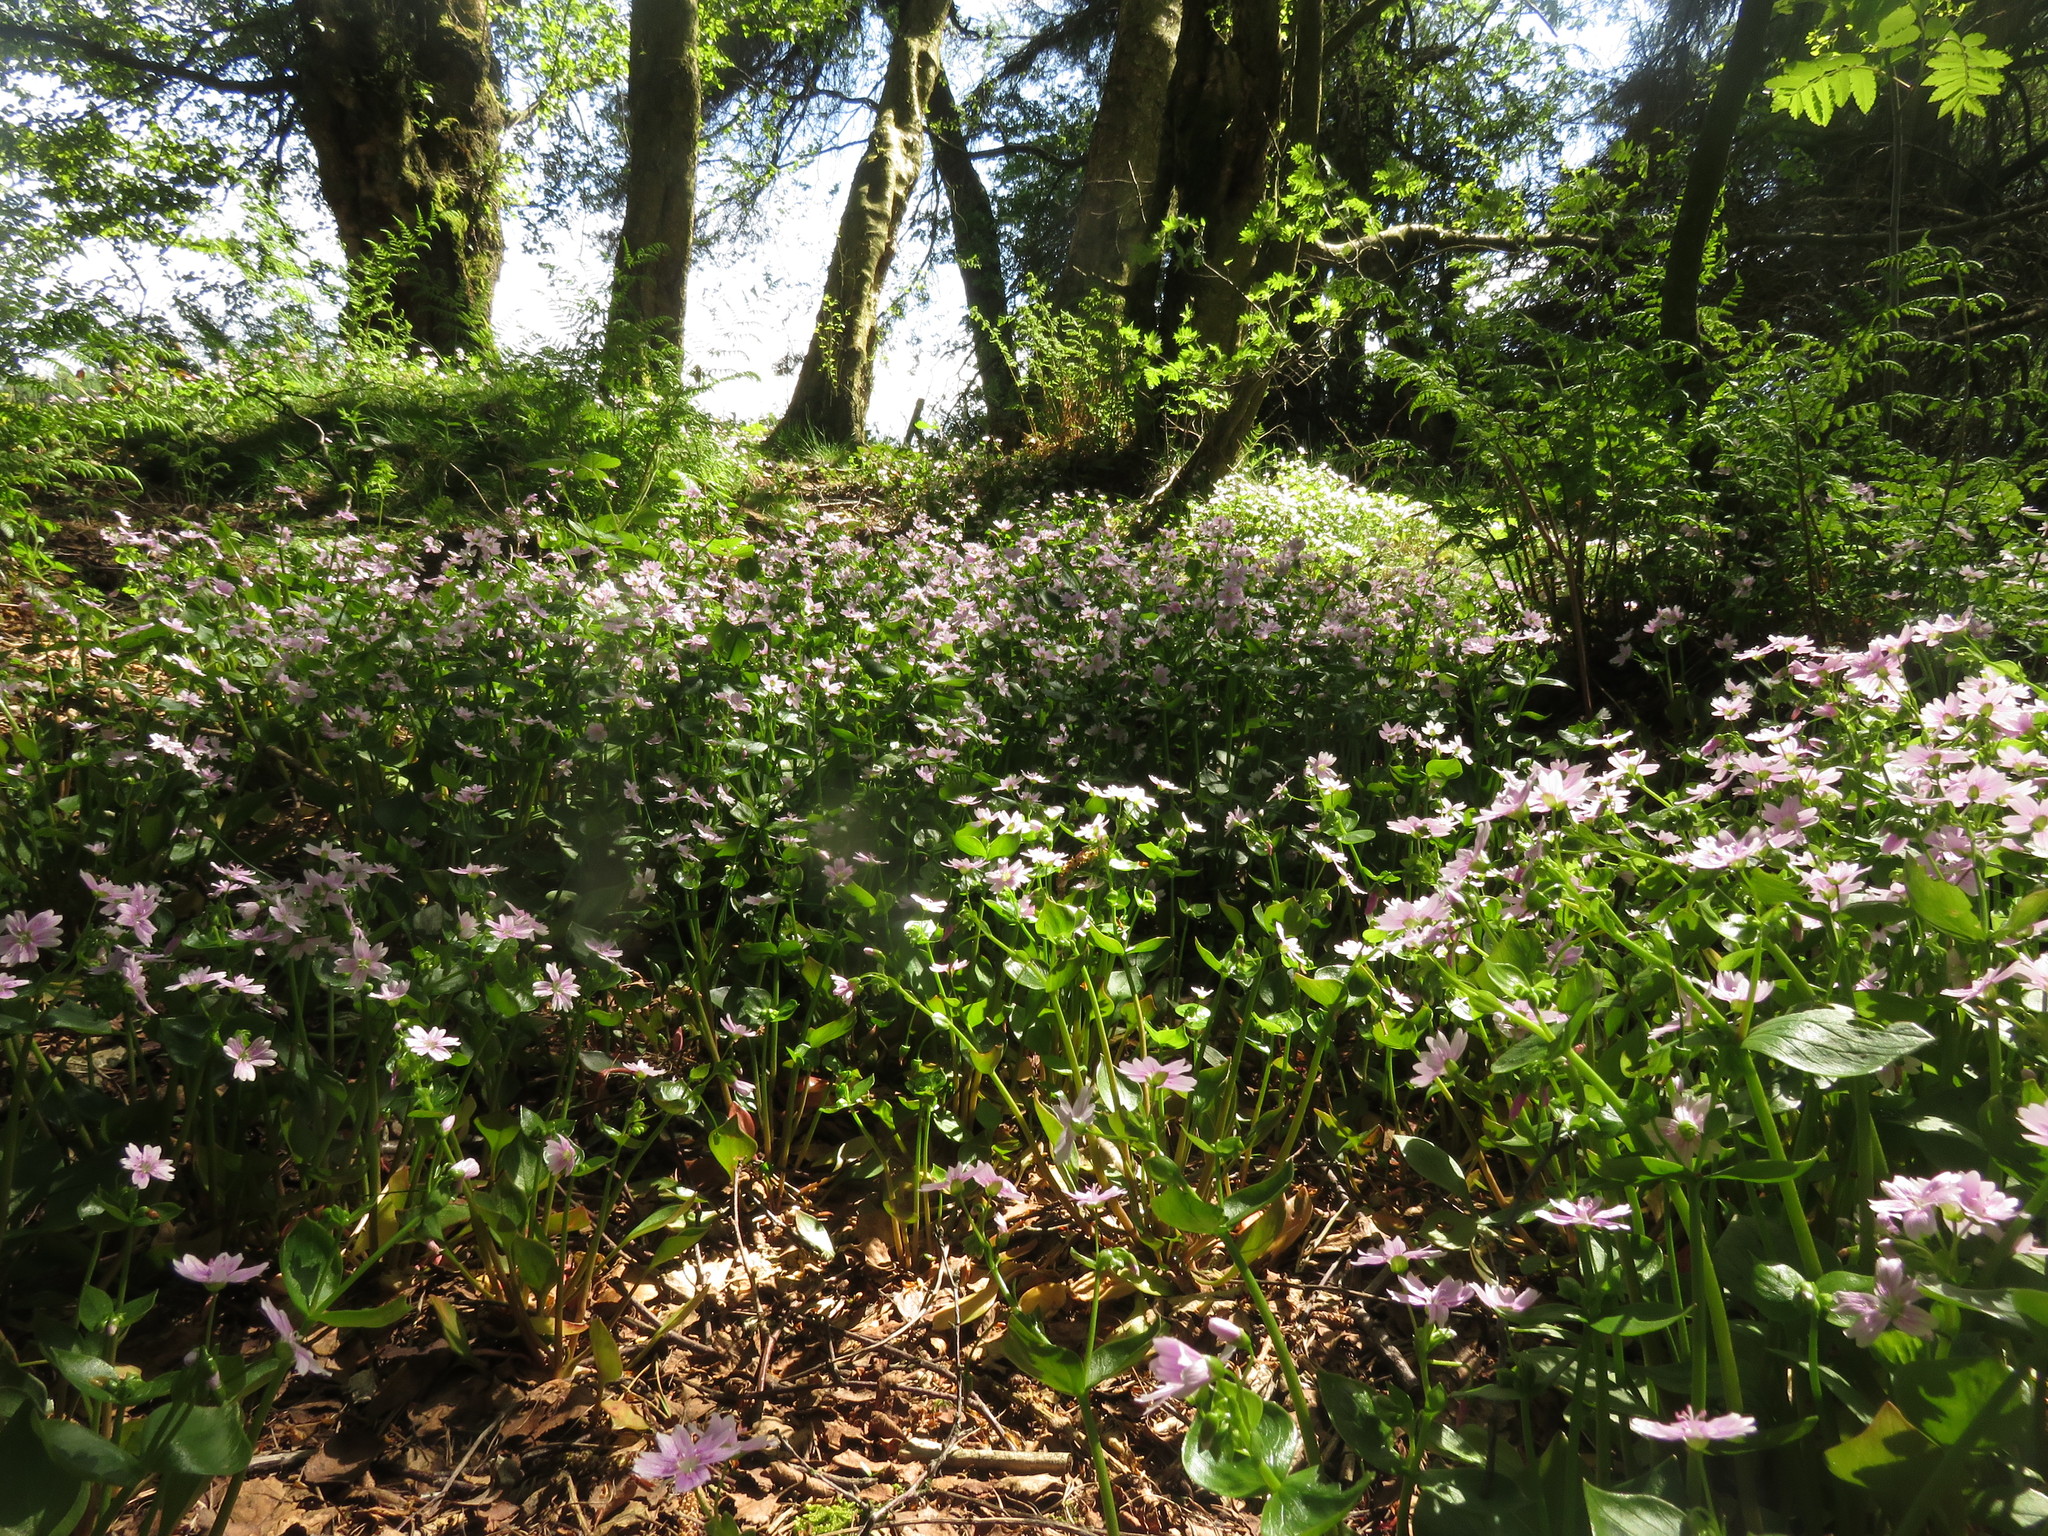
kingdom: Plantae
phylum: Tracheophyta
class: Magnoliopsida
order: Caryophyllales
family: Montiaceae
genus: Claytonia
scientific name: Claytonia sibirica
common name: Pink purslane
